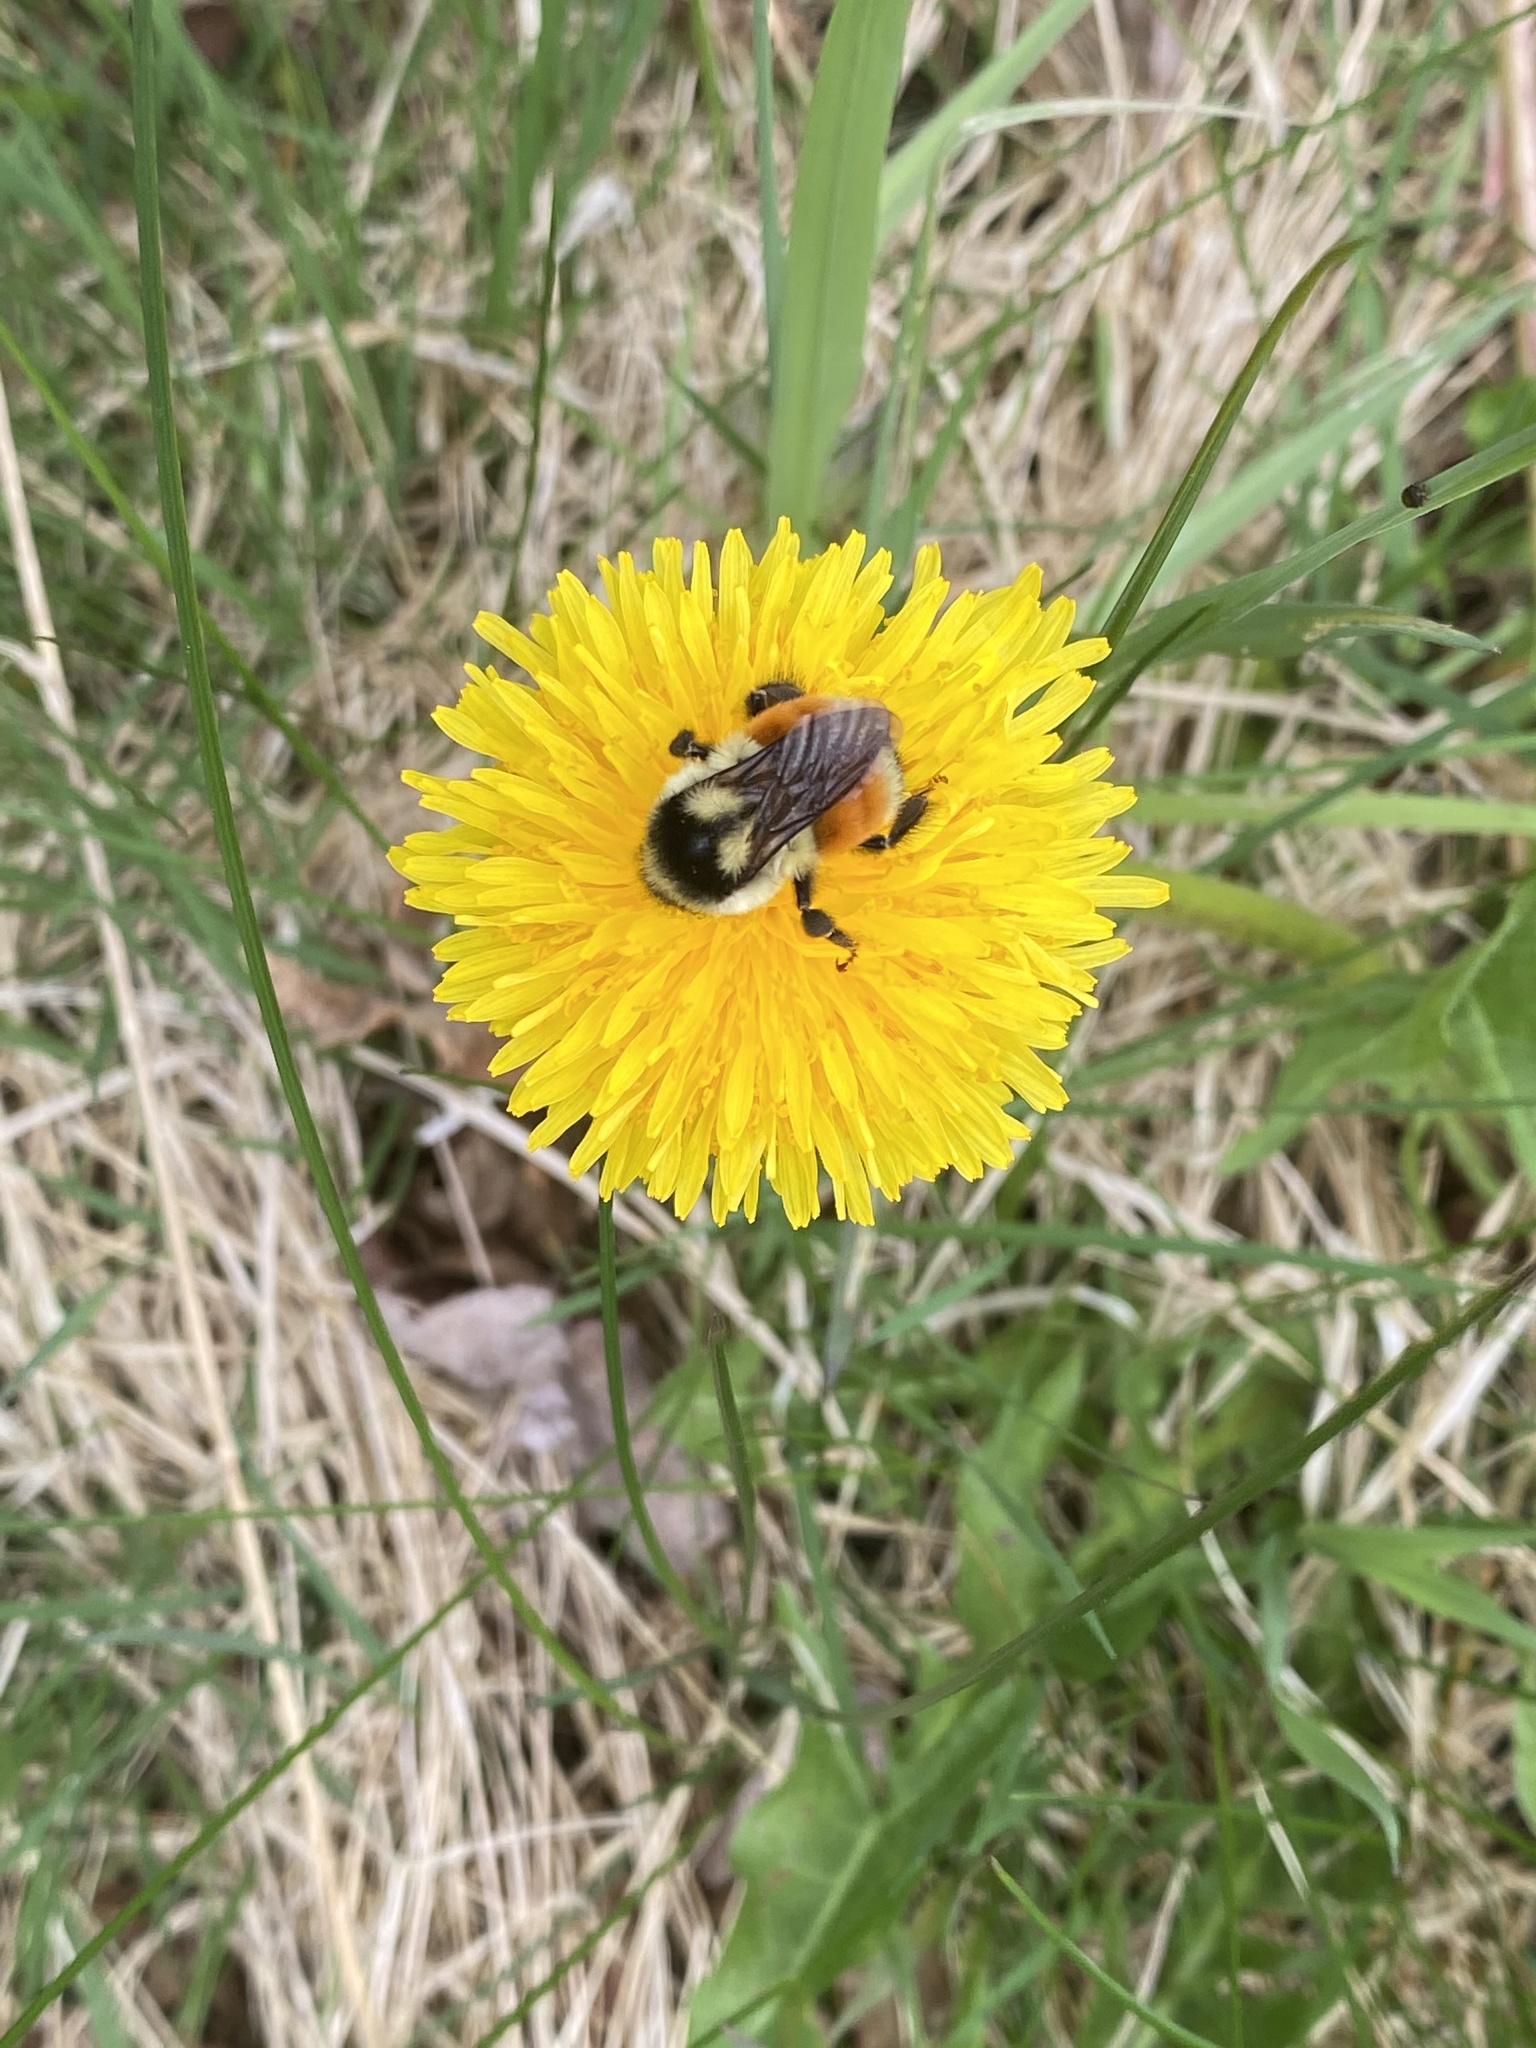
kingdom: Animalia
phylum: Arthropoda
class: Insecta
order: Hymenoptera
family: Apidae
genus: Bombus
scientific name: Bombus ternarius
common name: Tri-colored bumble bee
